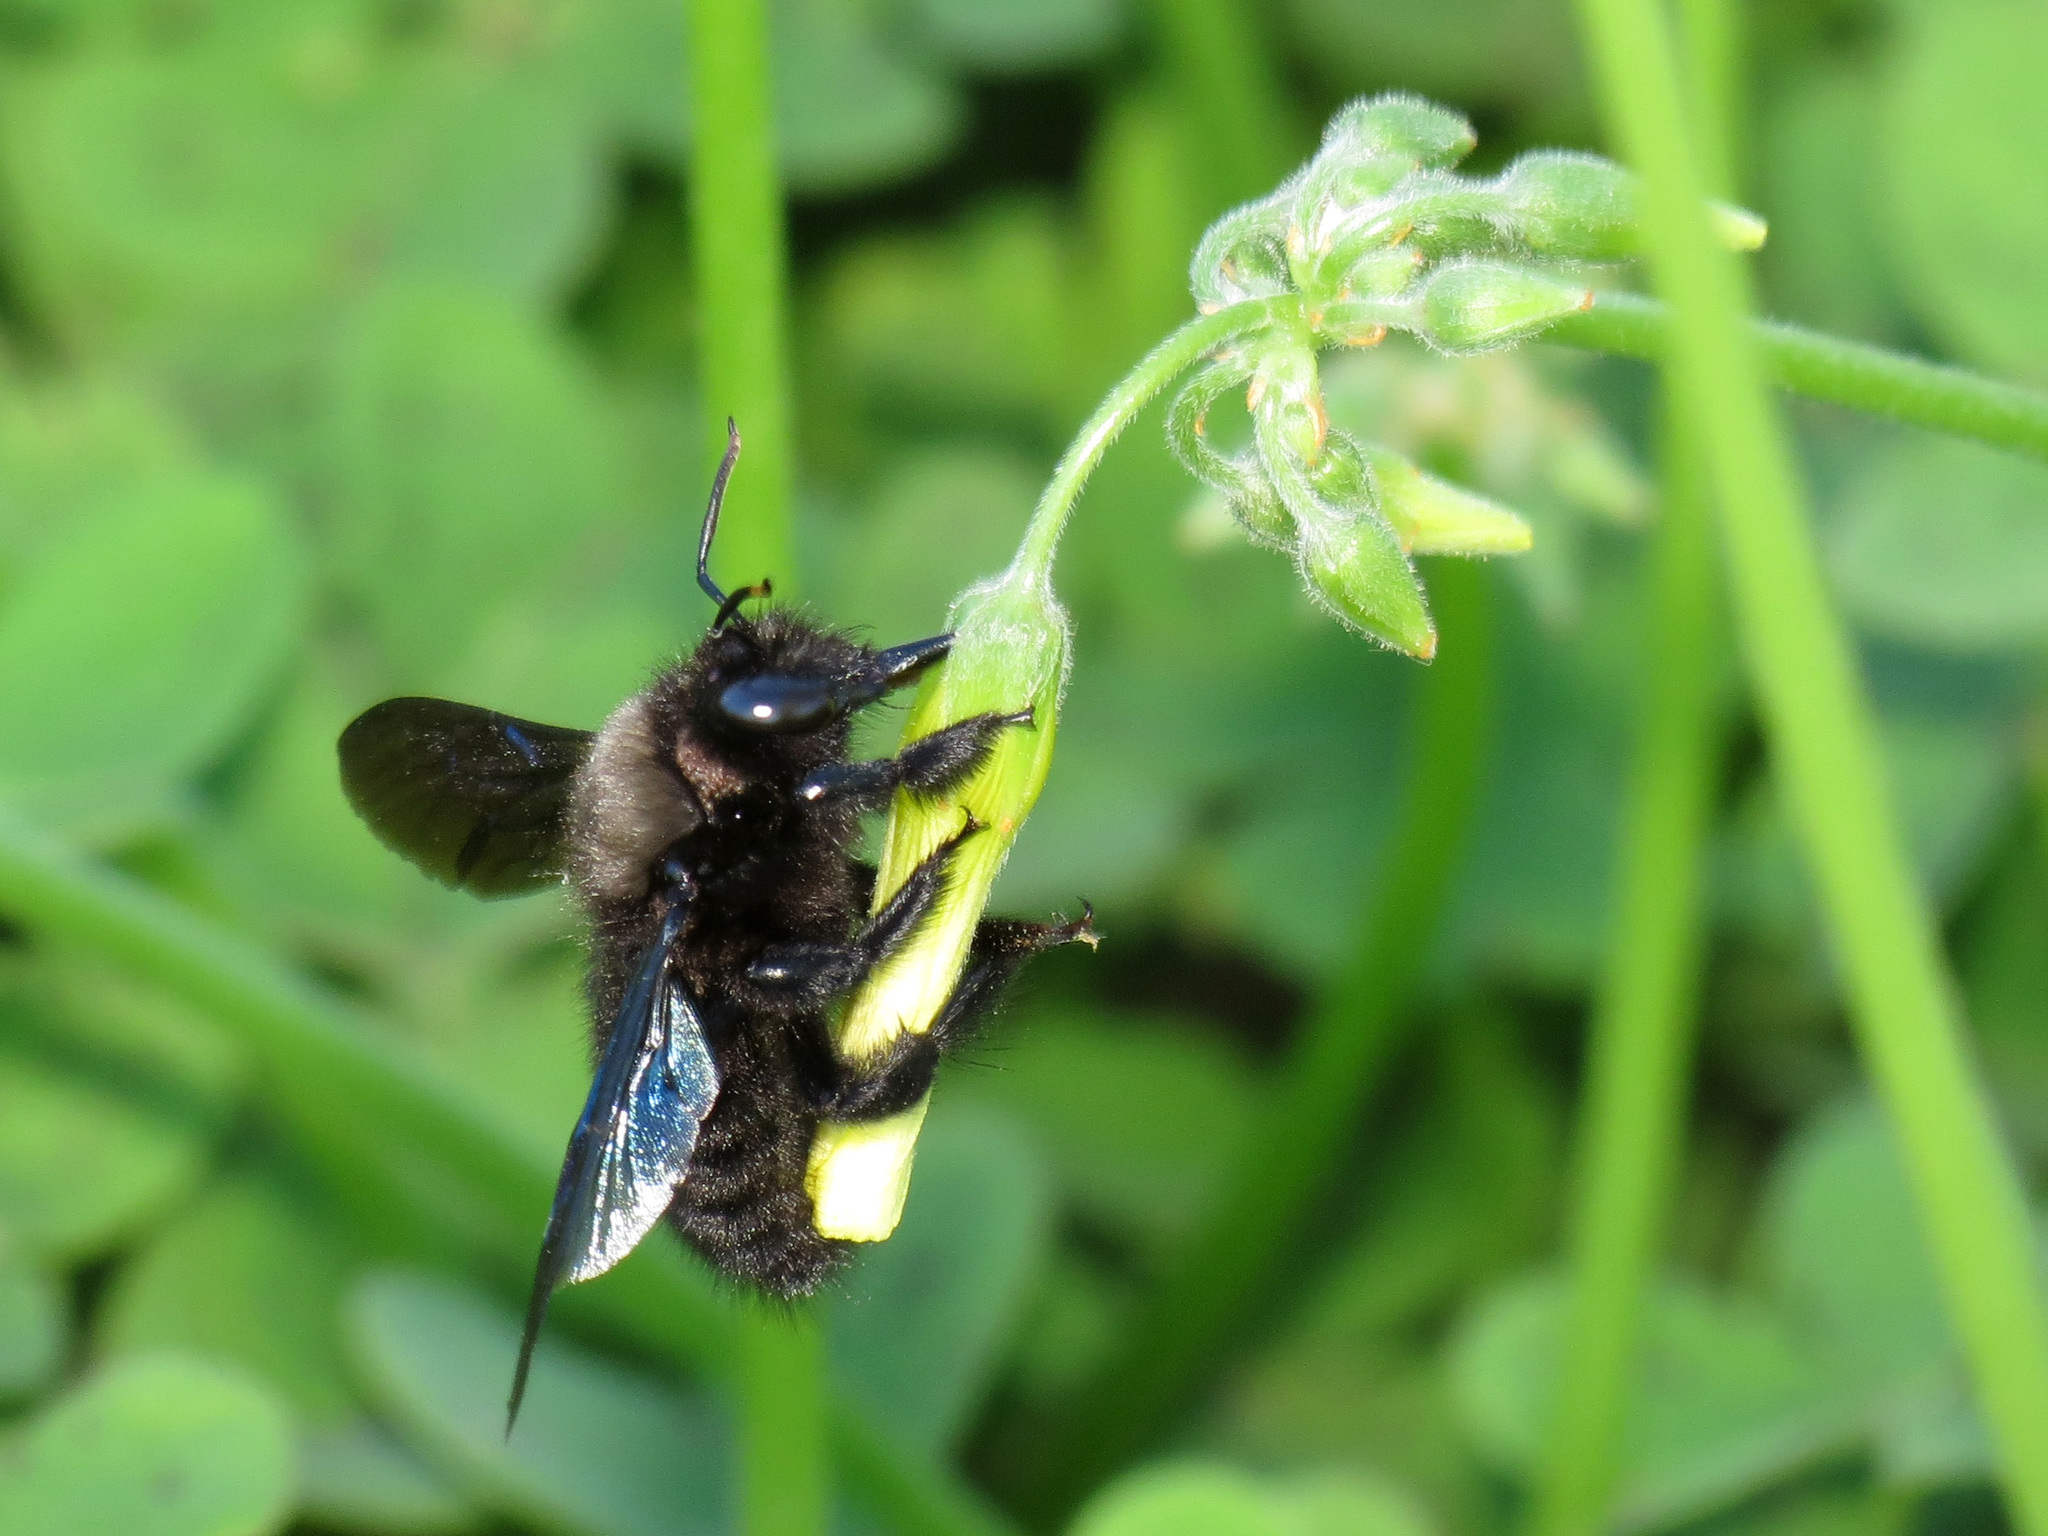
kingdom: Animalia
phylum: Arthropoda
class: Insecta
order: Hymenoptera
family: Apidae
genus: Xylocopa
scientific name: Xylocopa violacea
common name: Violet carpenter bee
